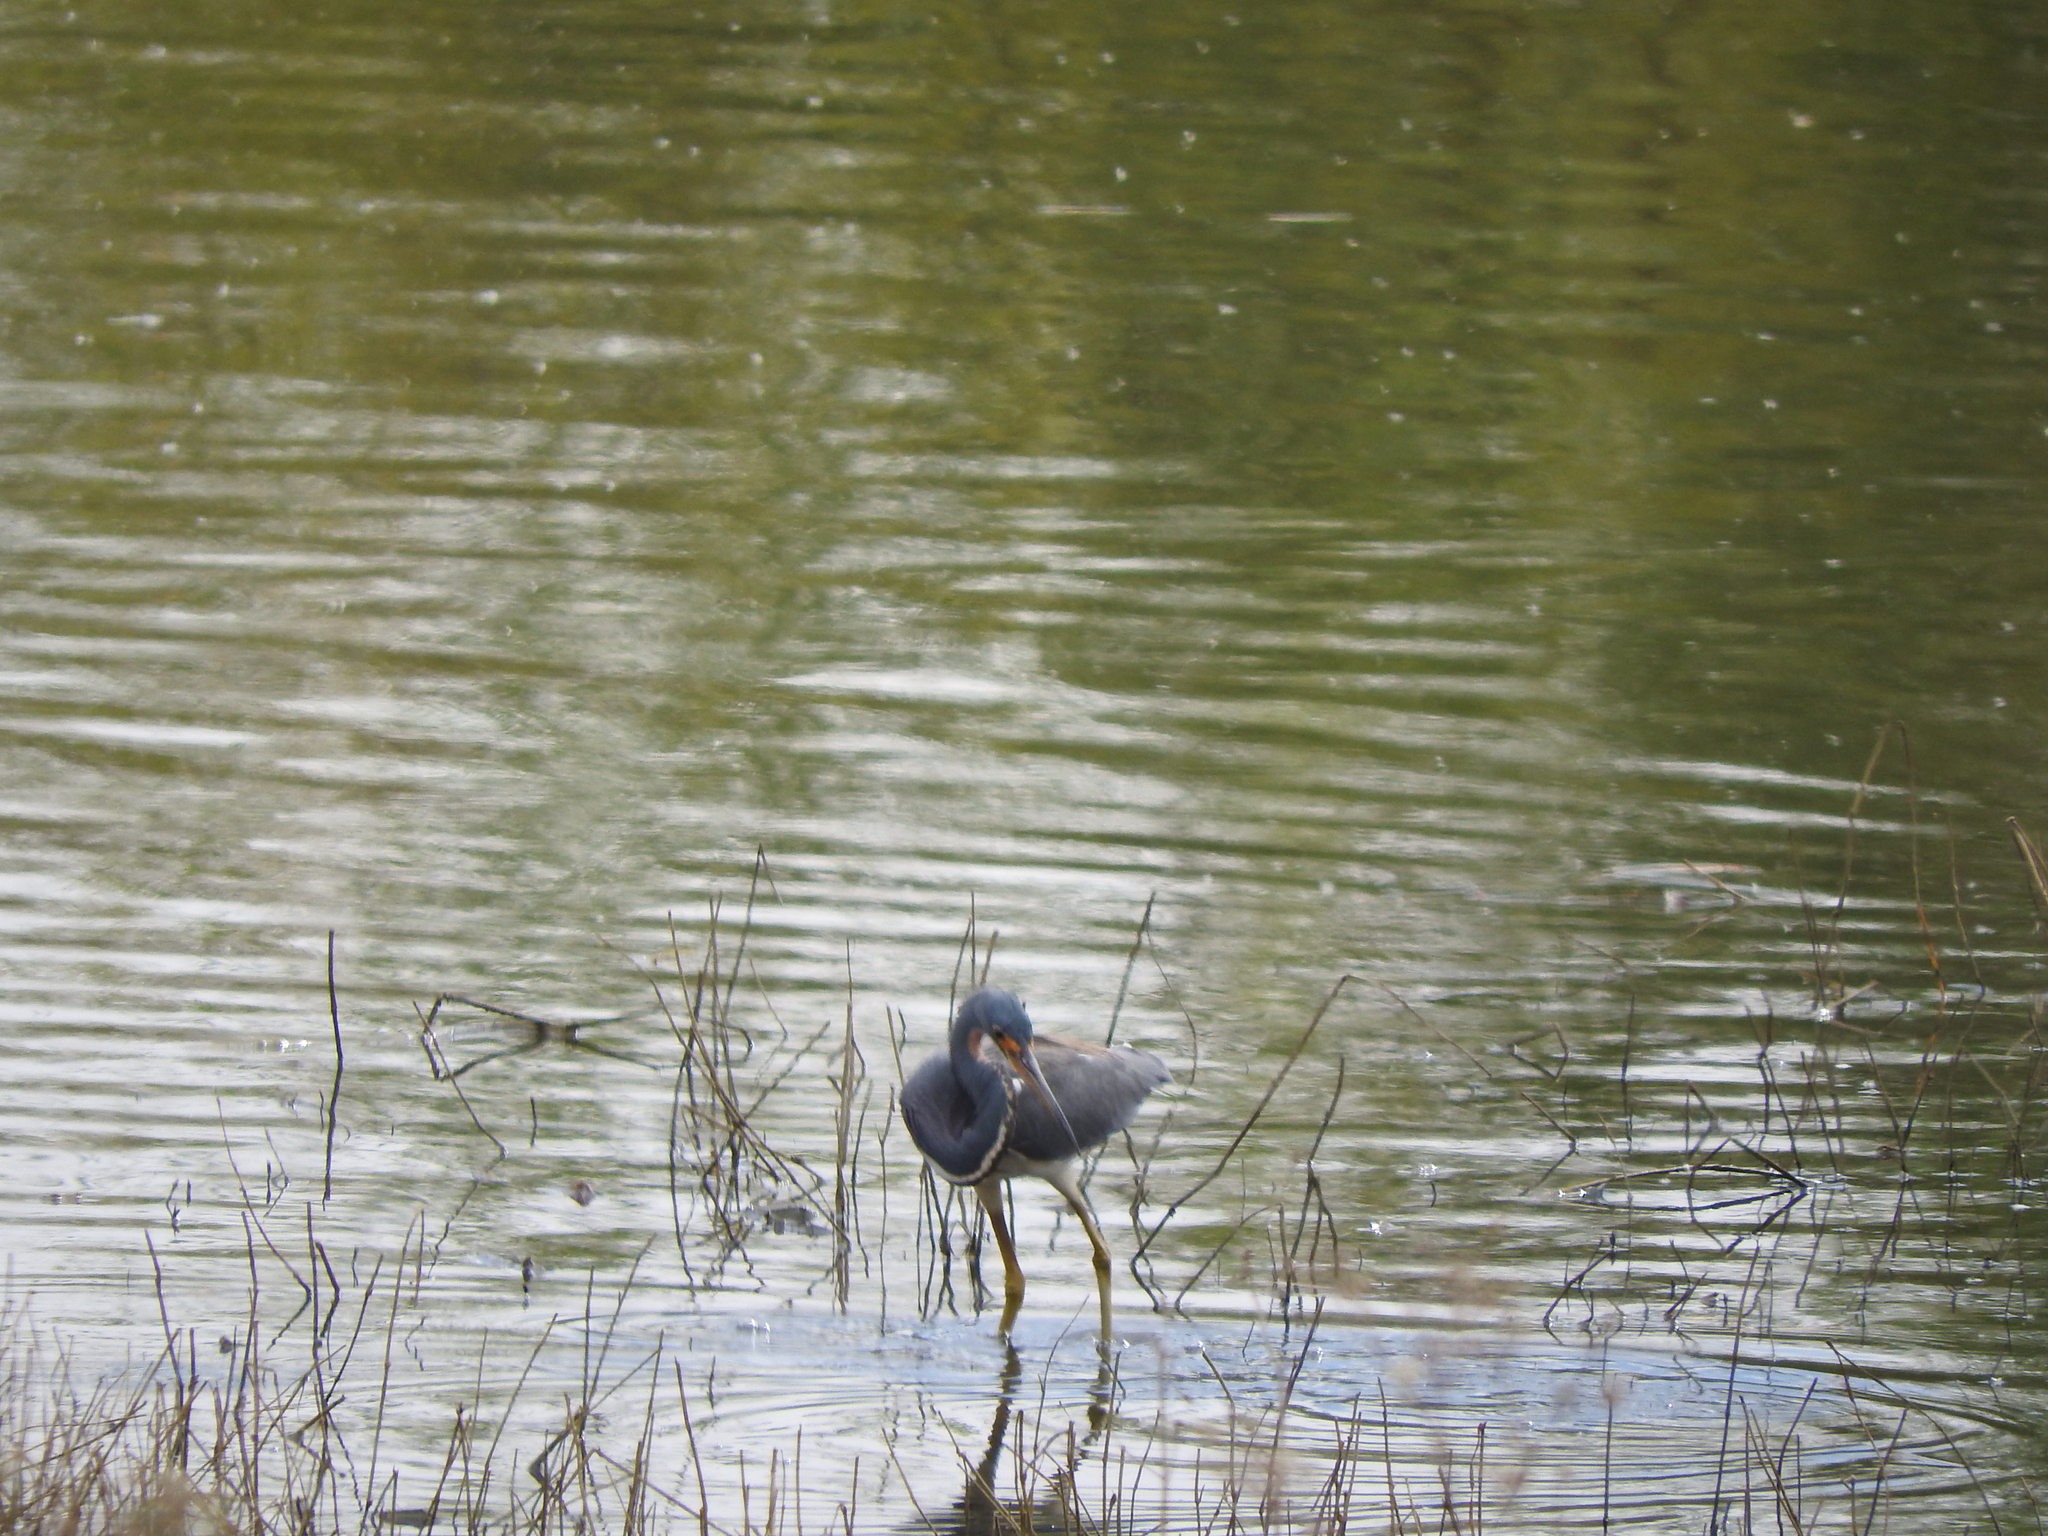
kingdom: Animalia
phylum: Chordata
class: Aves
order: Pelecaniformes
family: Ardeidae
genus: Egretta
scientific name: Egretta tricolor
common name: Tricolored heron
